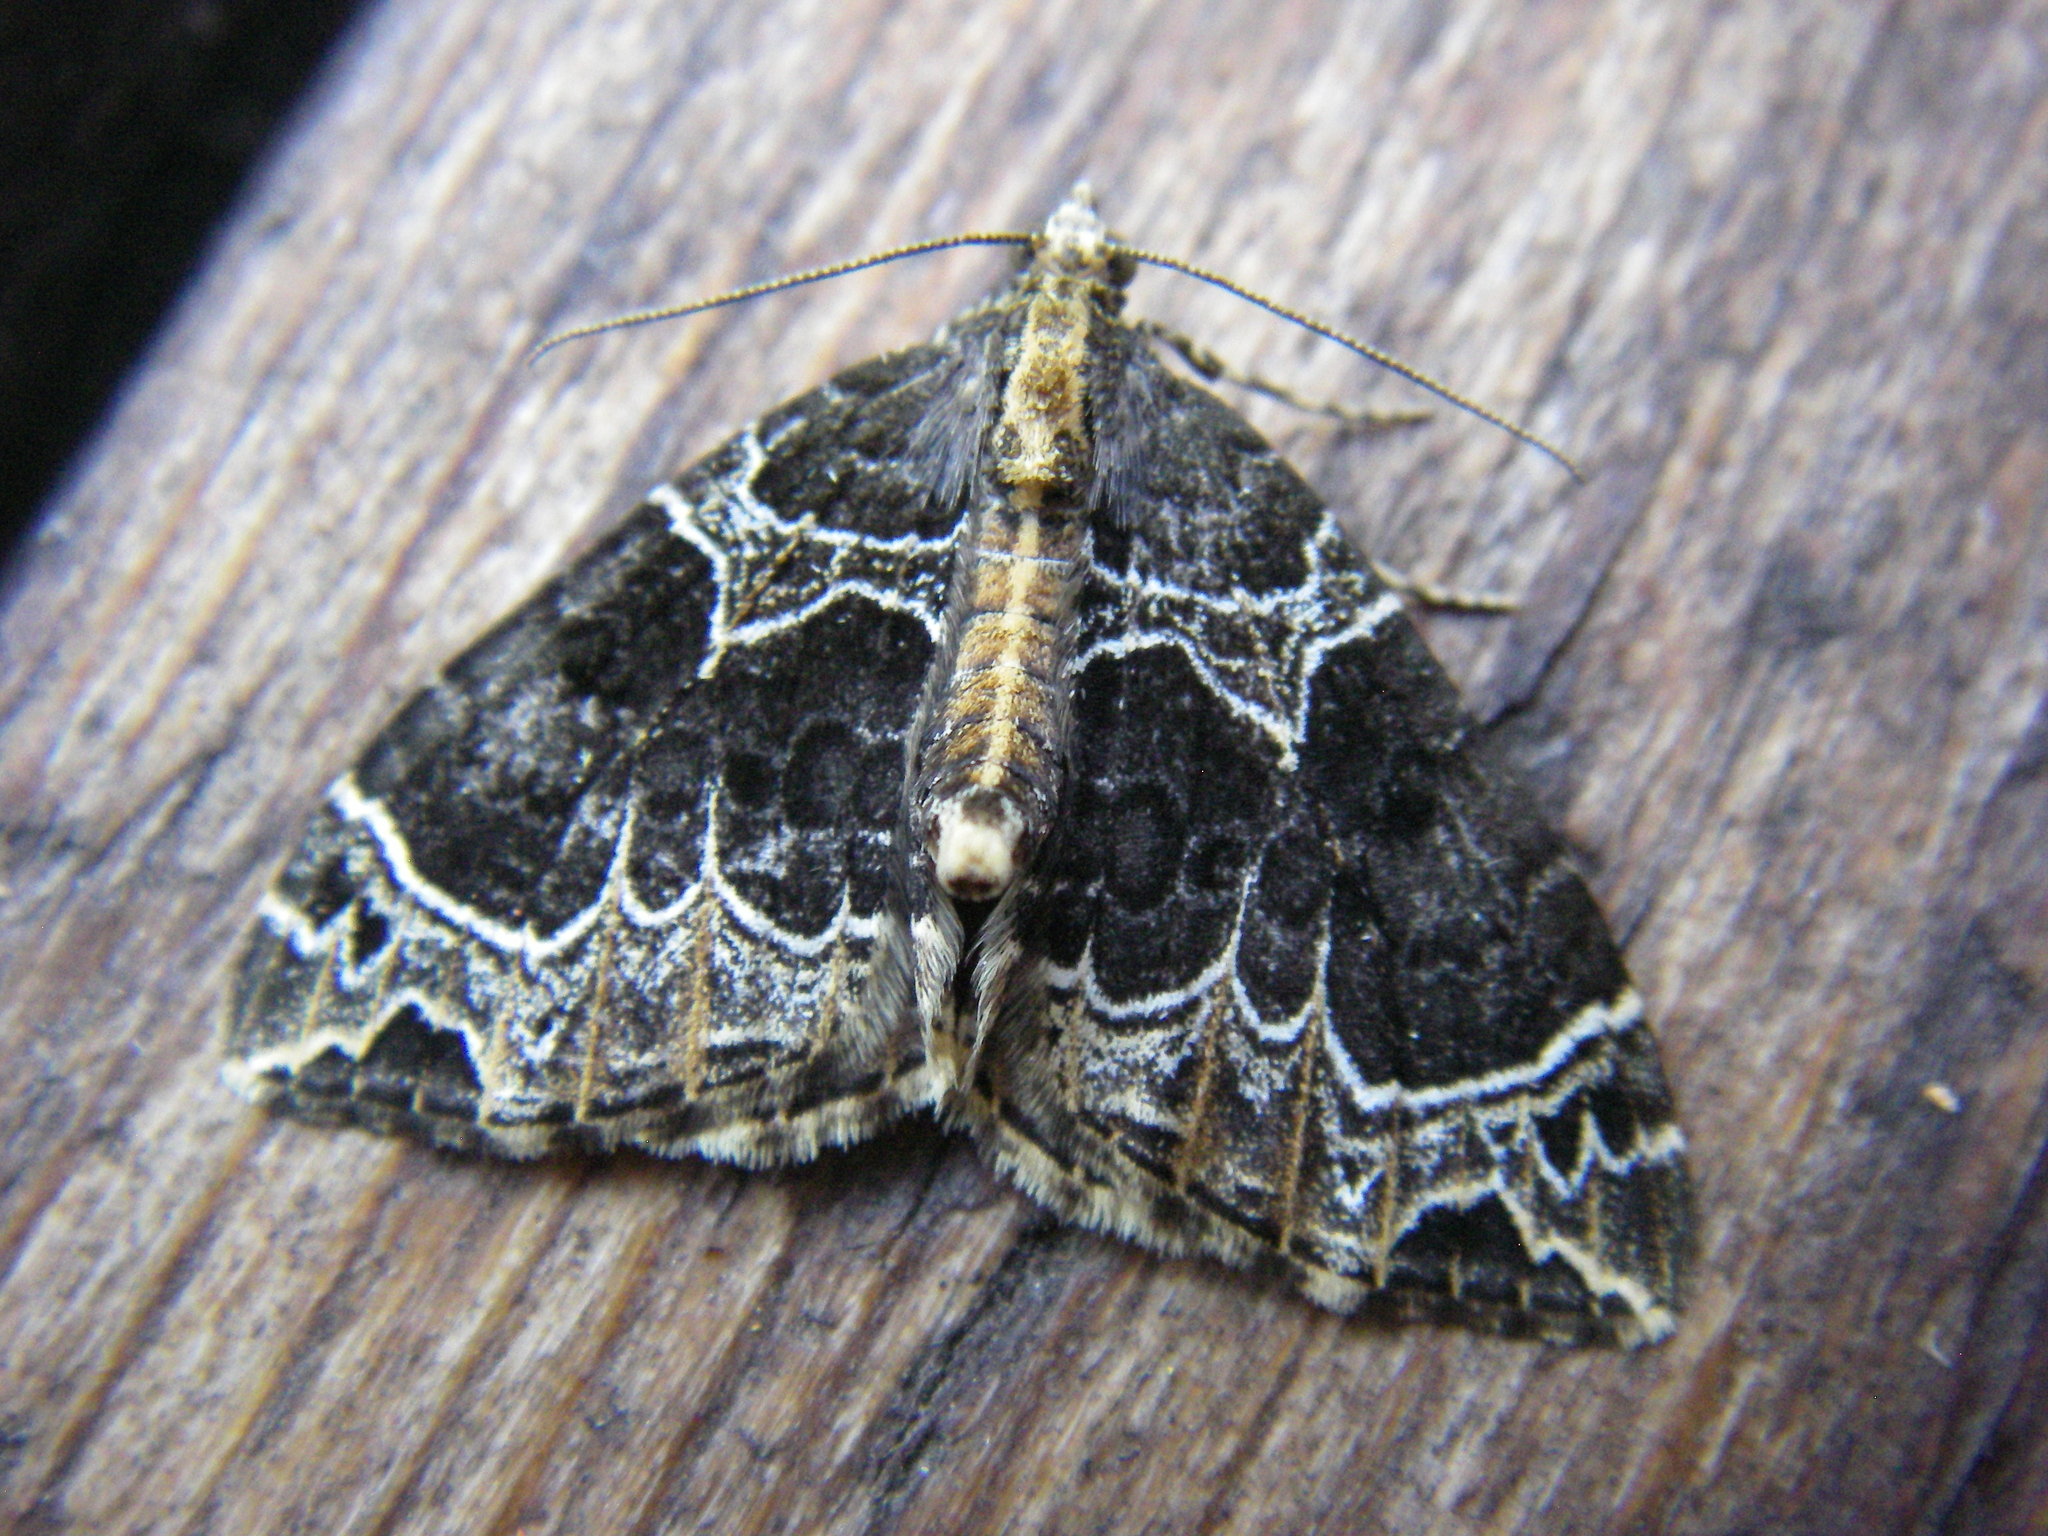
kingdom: Animalia
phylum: Arthropoda
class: Insecta
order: Lepidoptera
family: Geometridae
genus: Ecliptopera
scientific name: Ecliptopera silaceata
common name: Small phoenix
